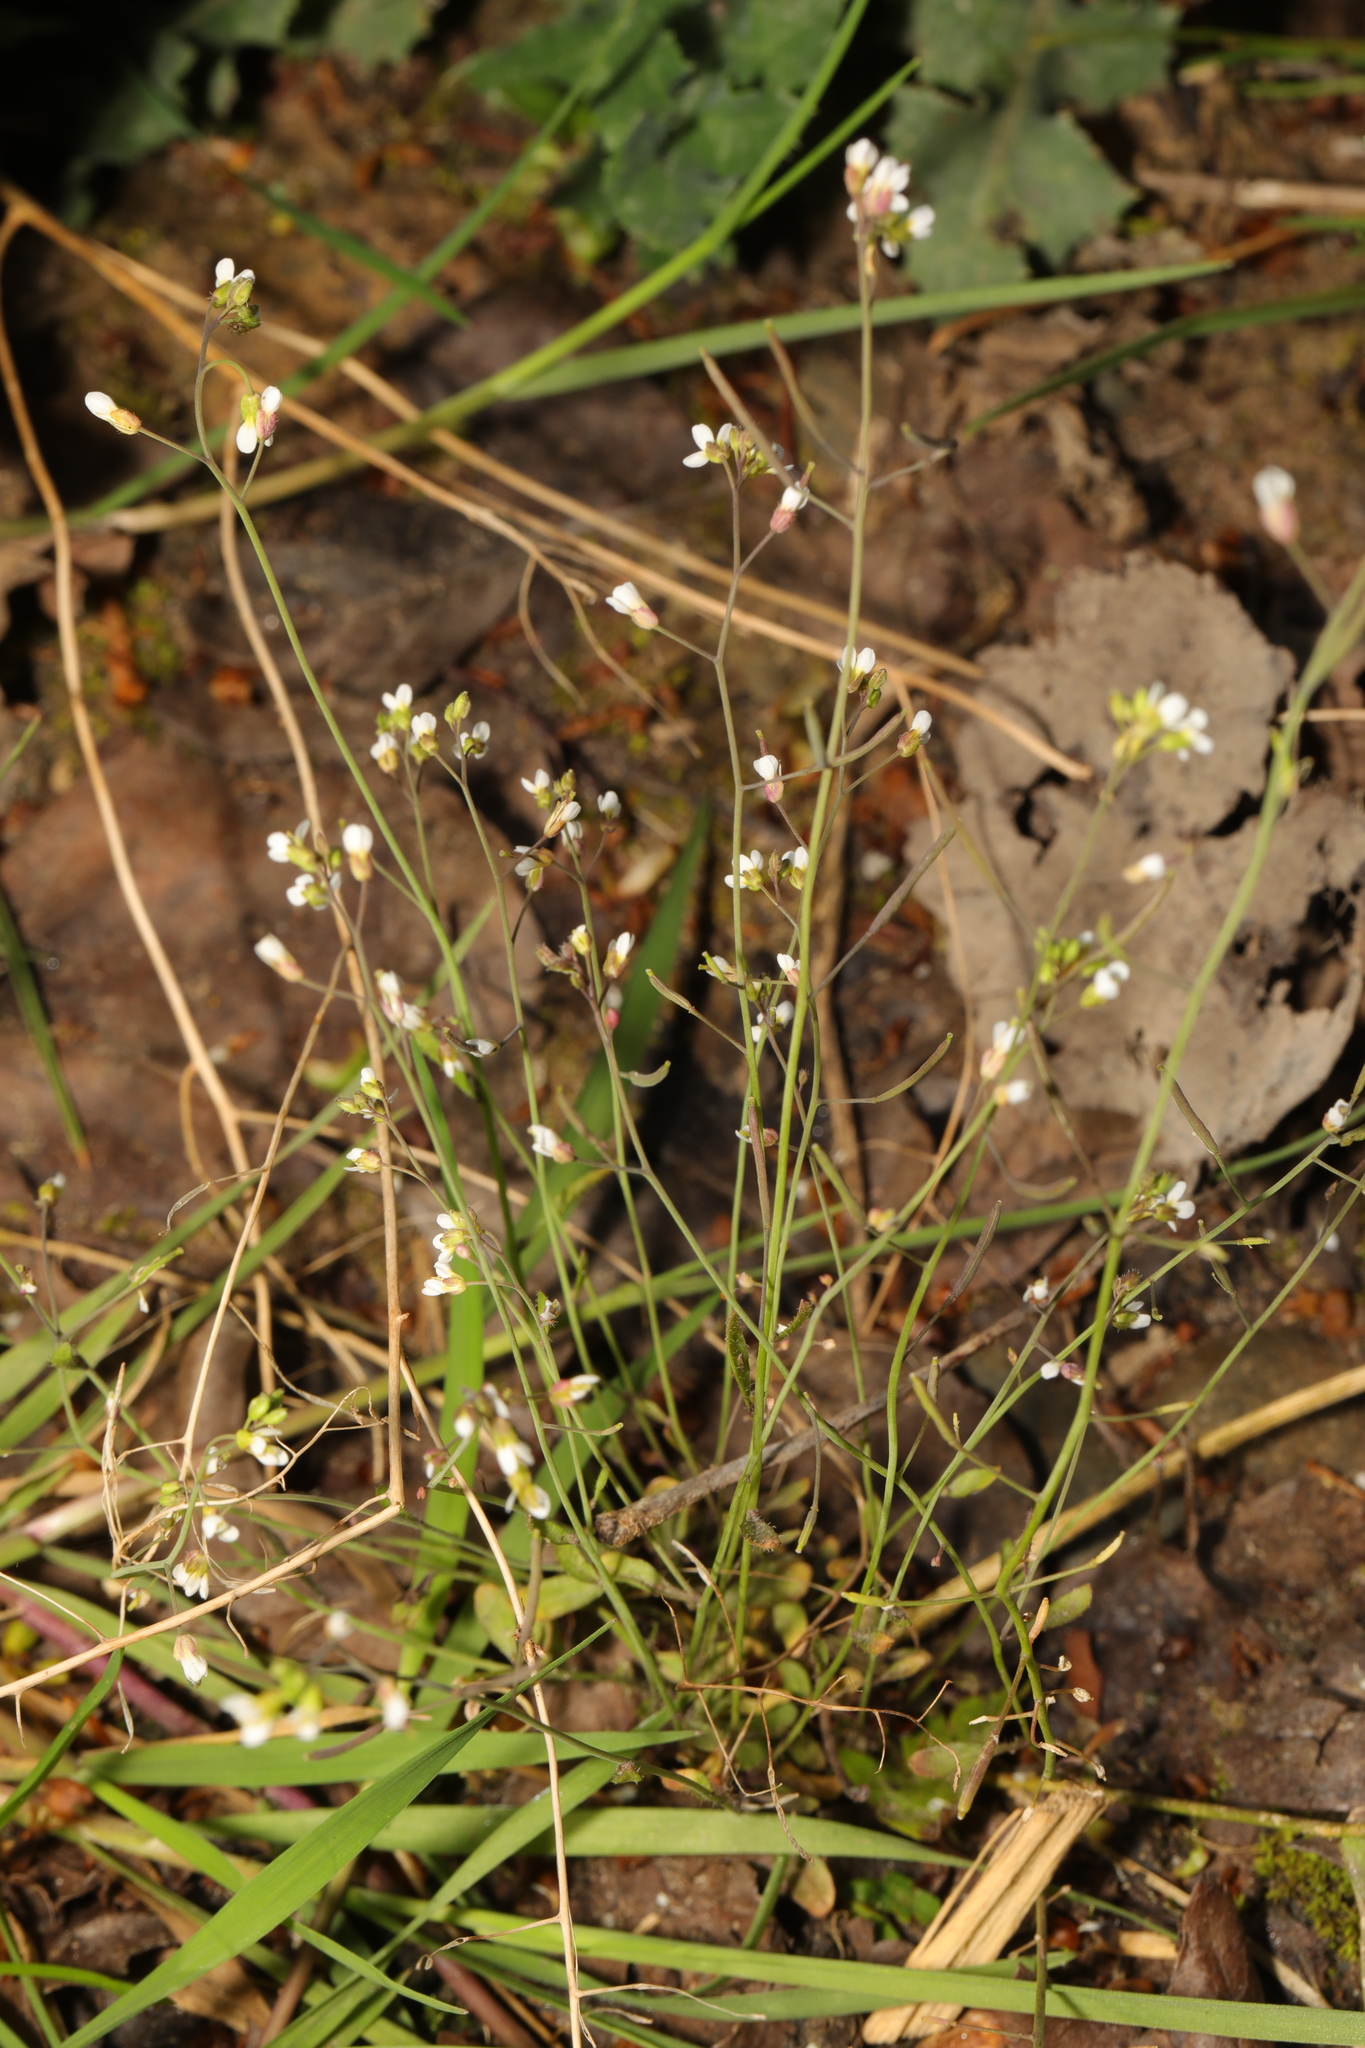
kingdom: Plantae
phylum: Tracheophyta
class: Magnoliopsida
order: Brassicales
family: Brassicaceae
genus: Arabidopsis
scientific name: Arabidopsis thaliana
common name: Thale cress
